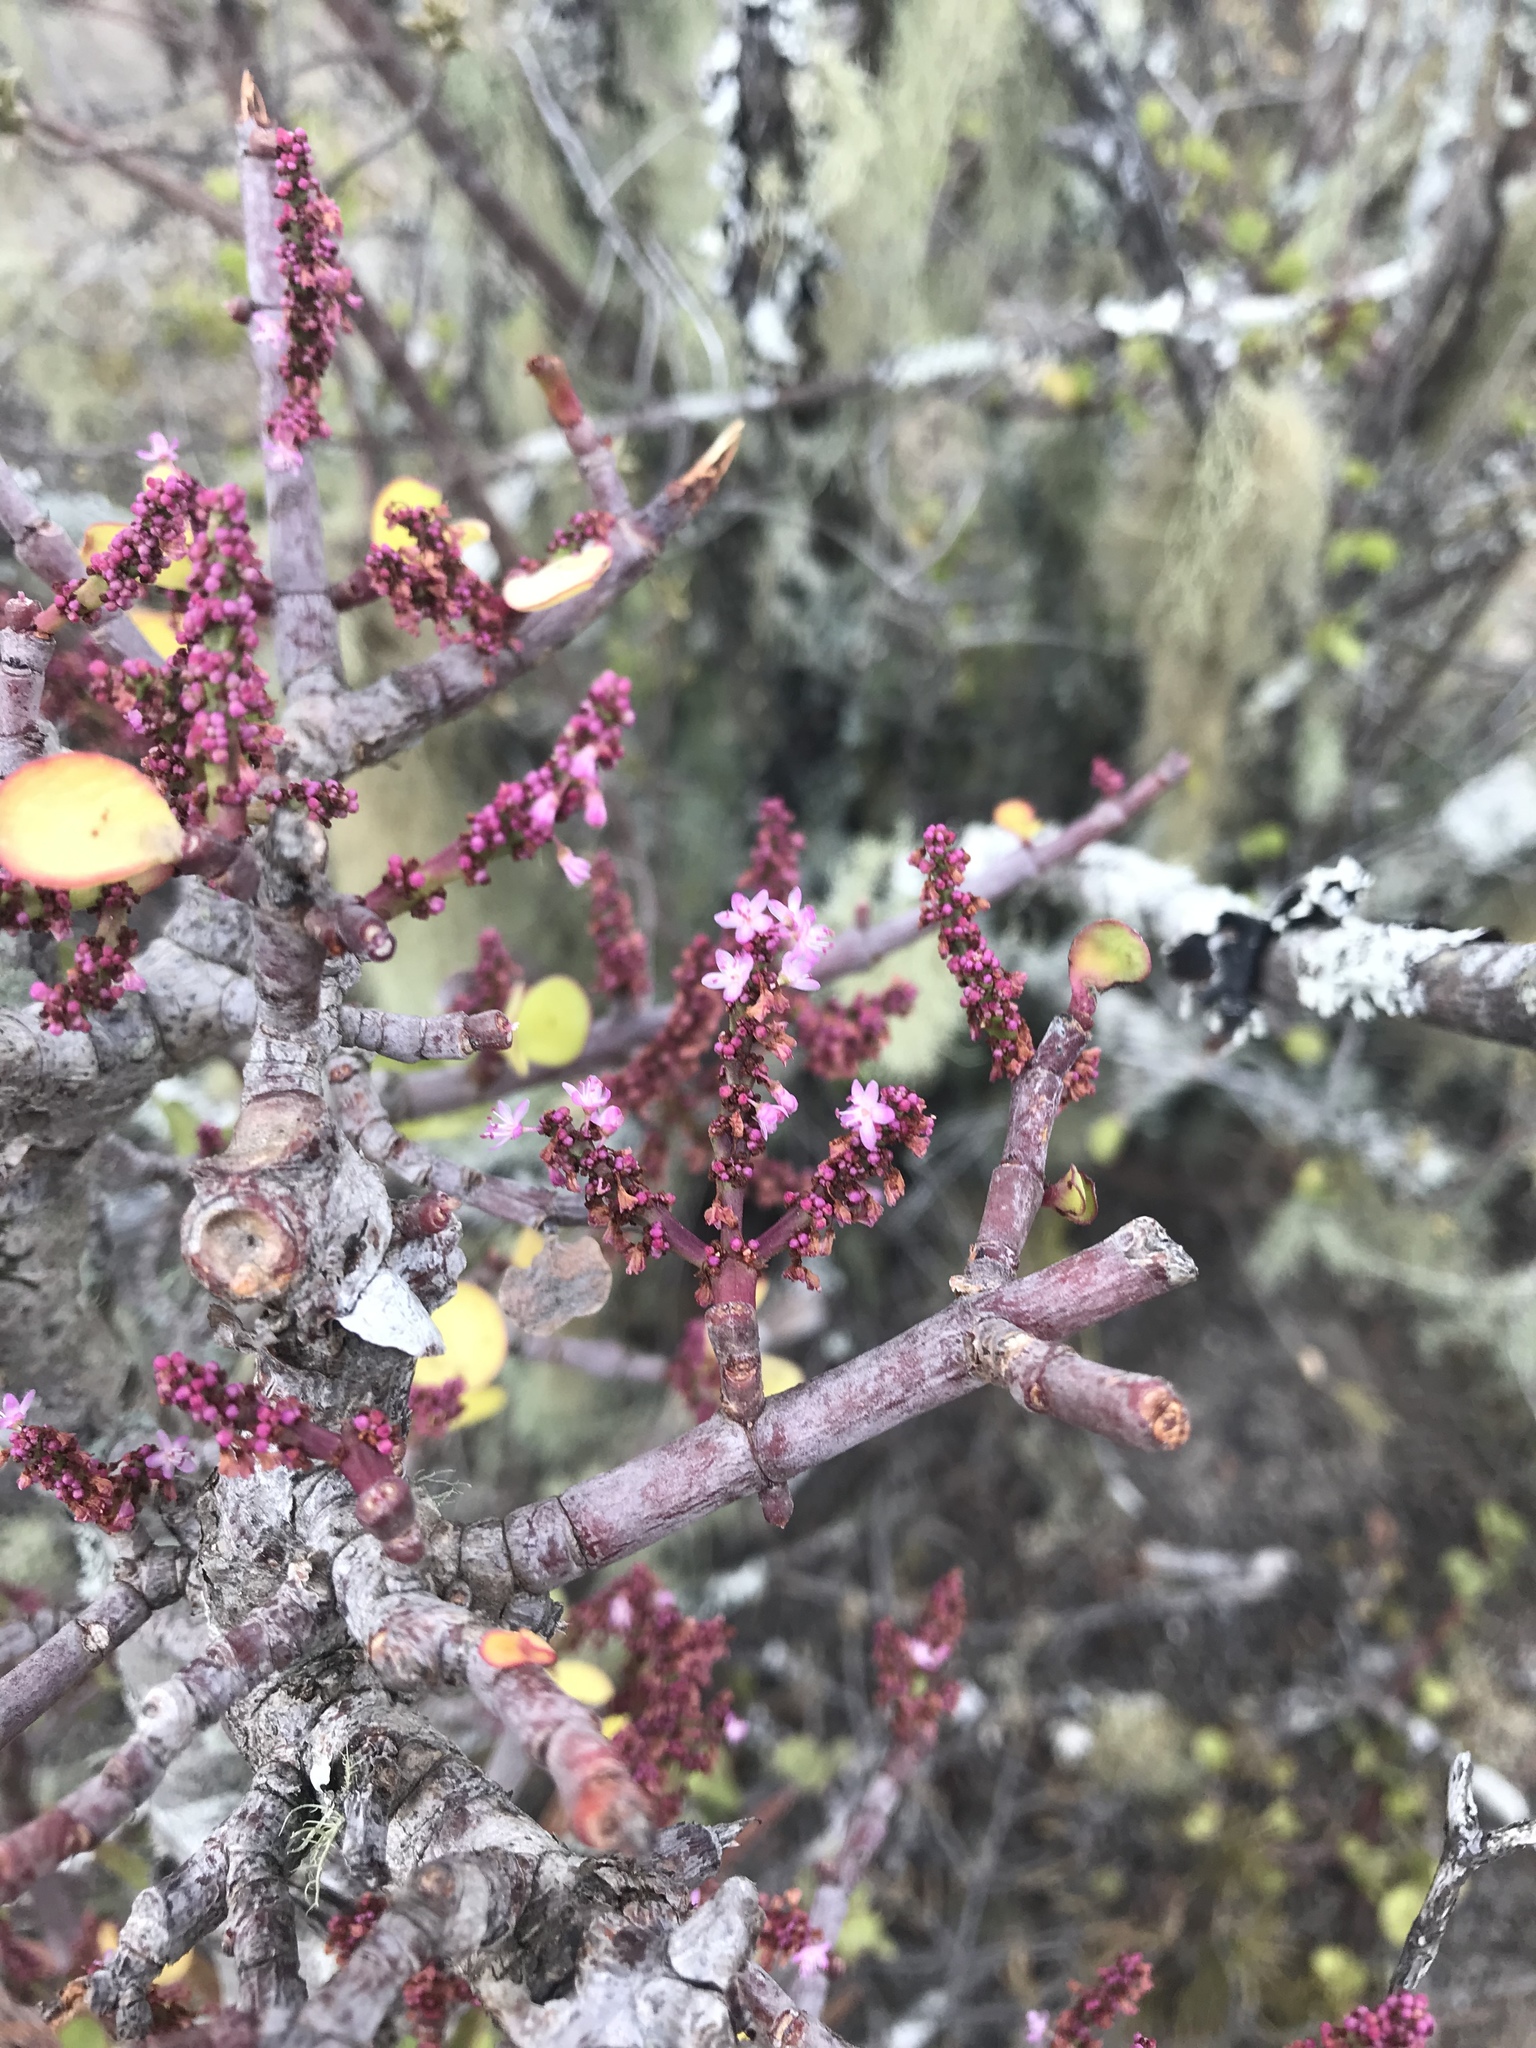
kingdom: Plantae
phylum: Tracheophyta
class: Magnoliopsida
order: Caryophyllales
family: Didiereaceae
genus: Portulacaria
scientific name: Portulacaria afra
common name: Elephant-bush
